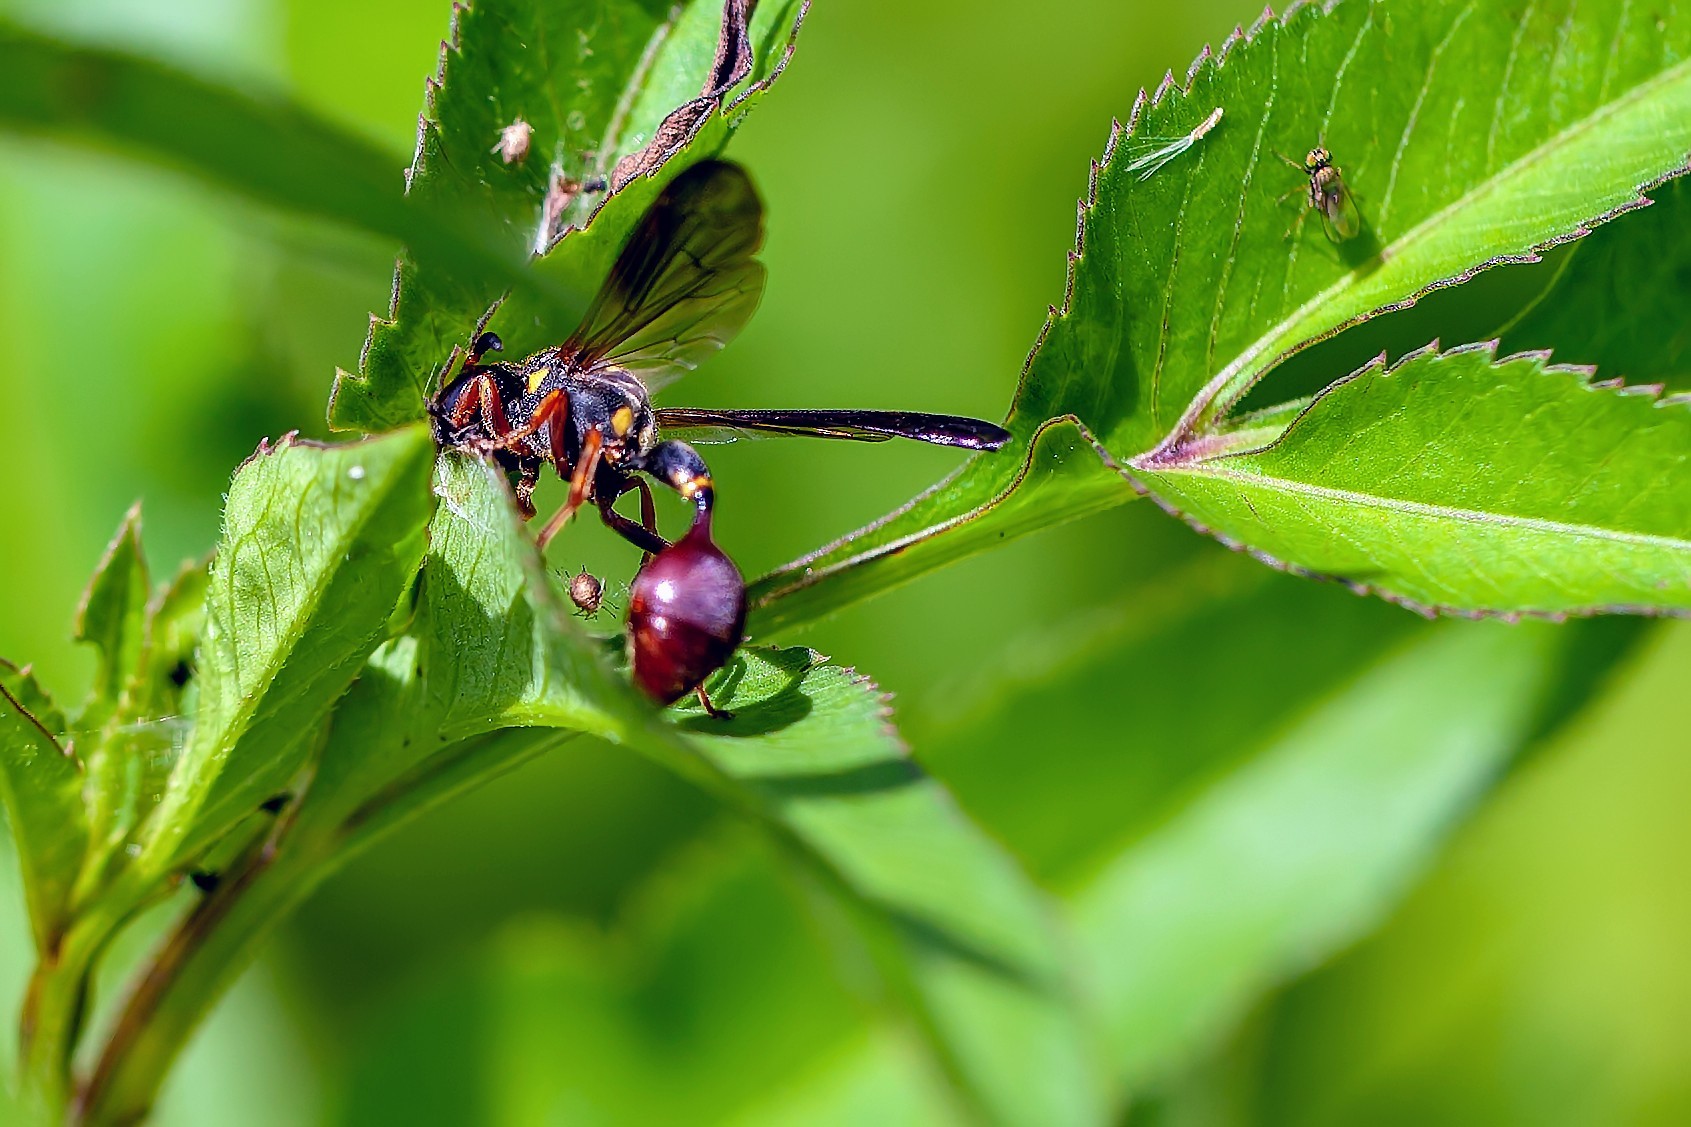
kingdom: Animalia
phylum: Arthropoda
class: Insecta
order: Hymenoptera
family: Eumenidae
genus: Zethus
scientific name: Zethus slossonae
